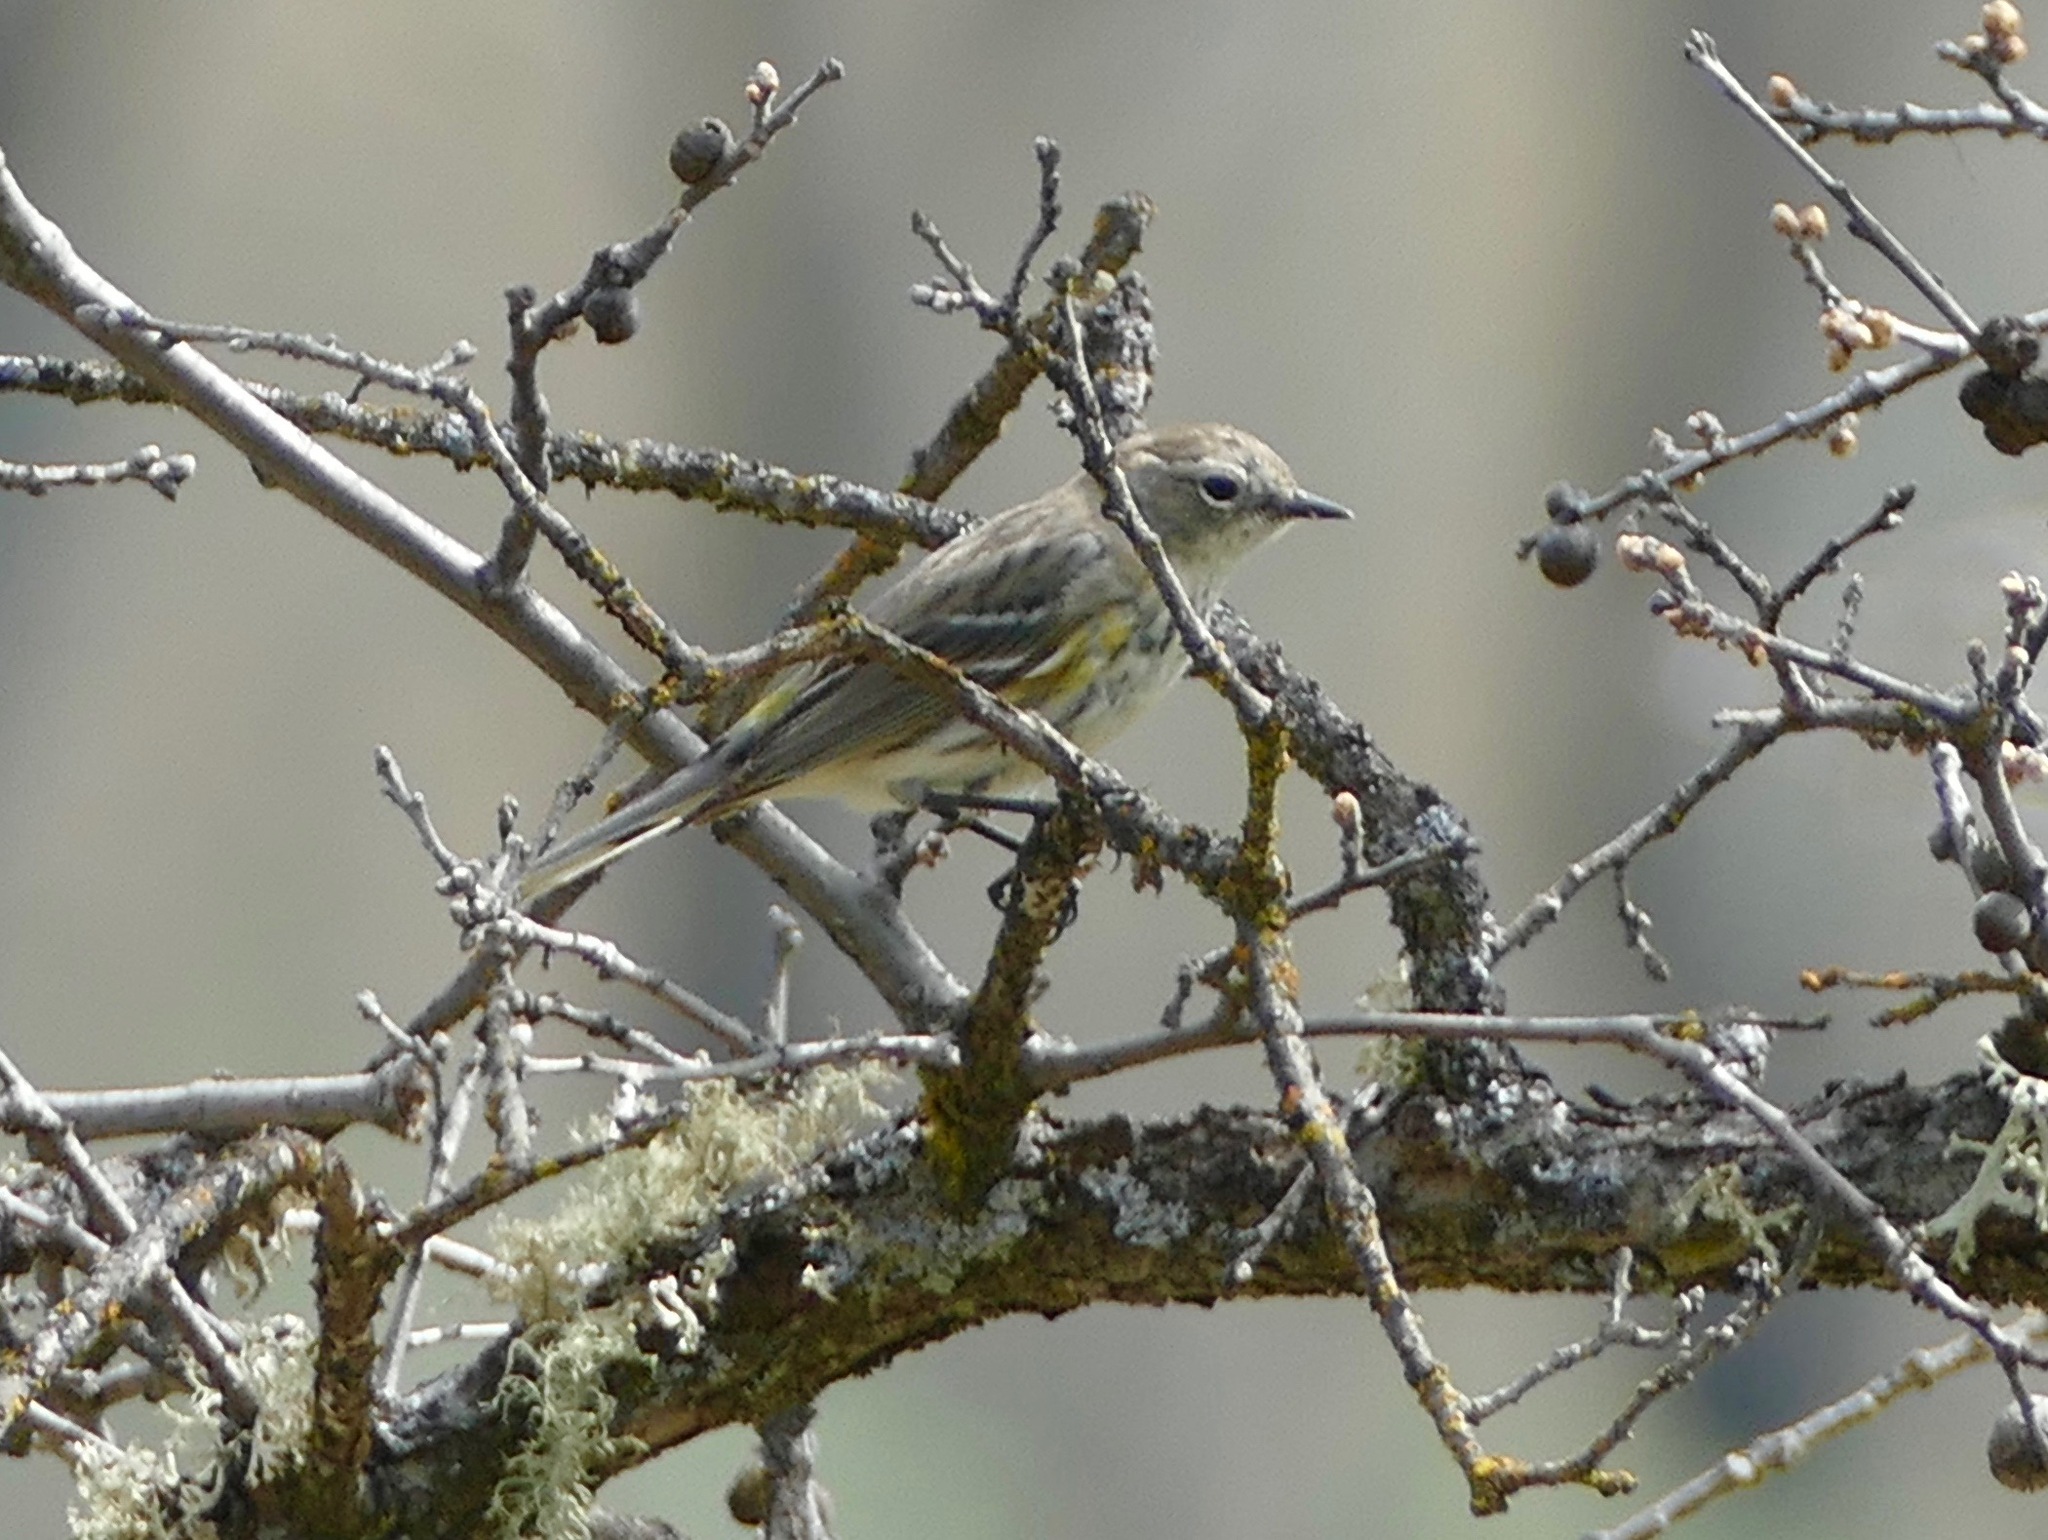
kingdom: Animalia
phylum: Chordata
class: Aves
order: Passeriformes
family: Parulidae
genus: Setophaga
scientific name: Setophaga coronata
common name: Myrtle warbler
